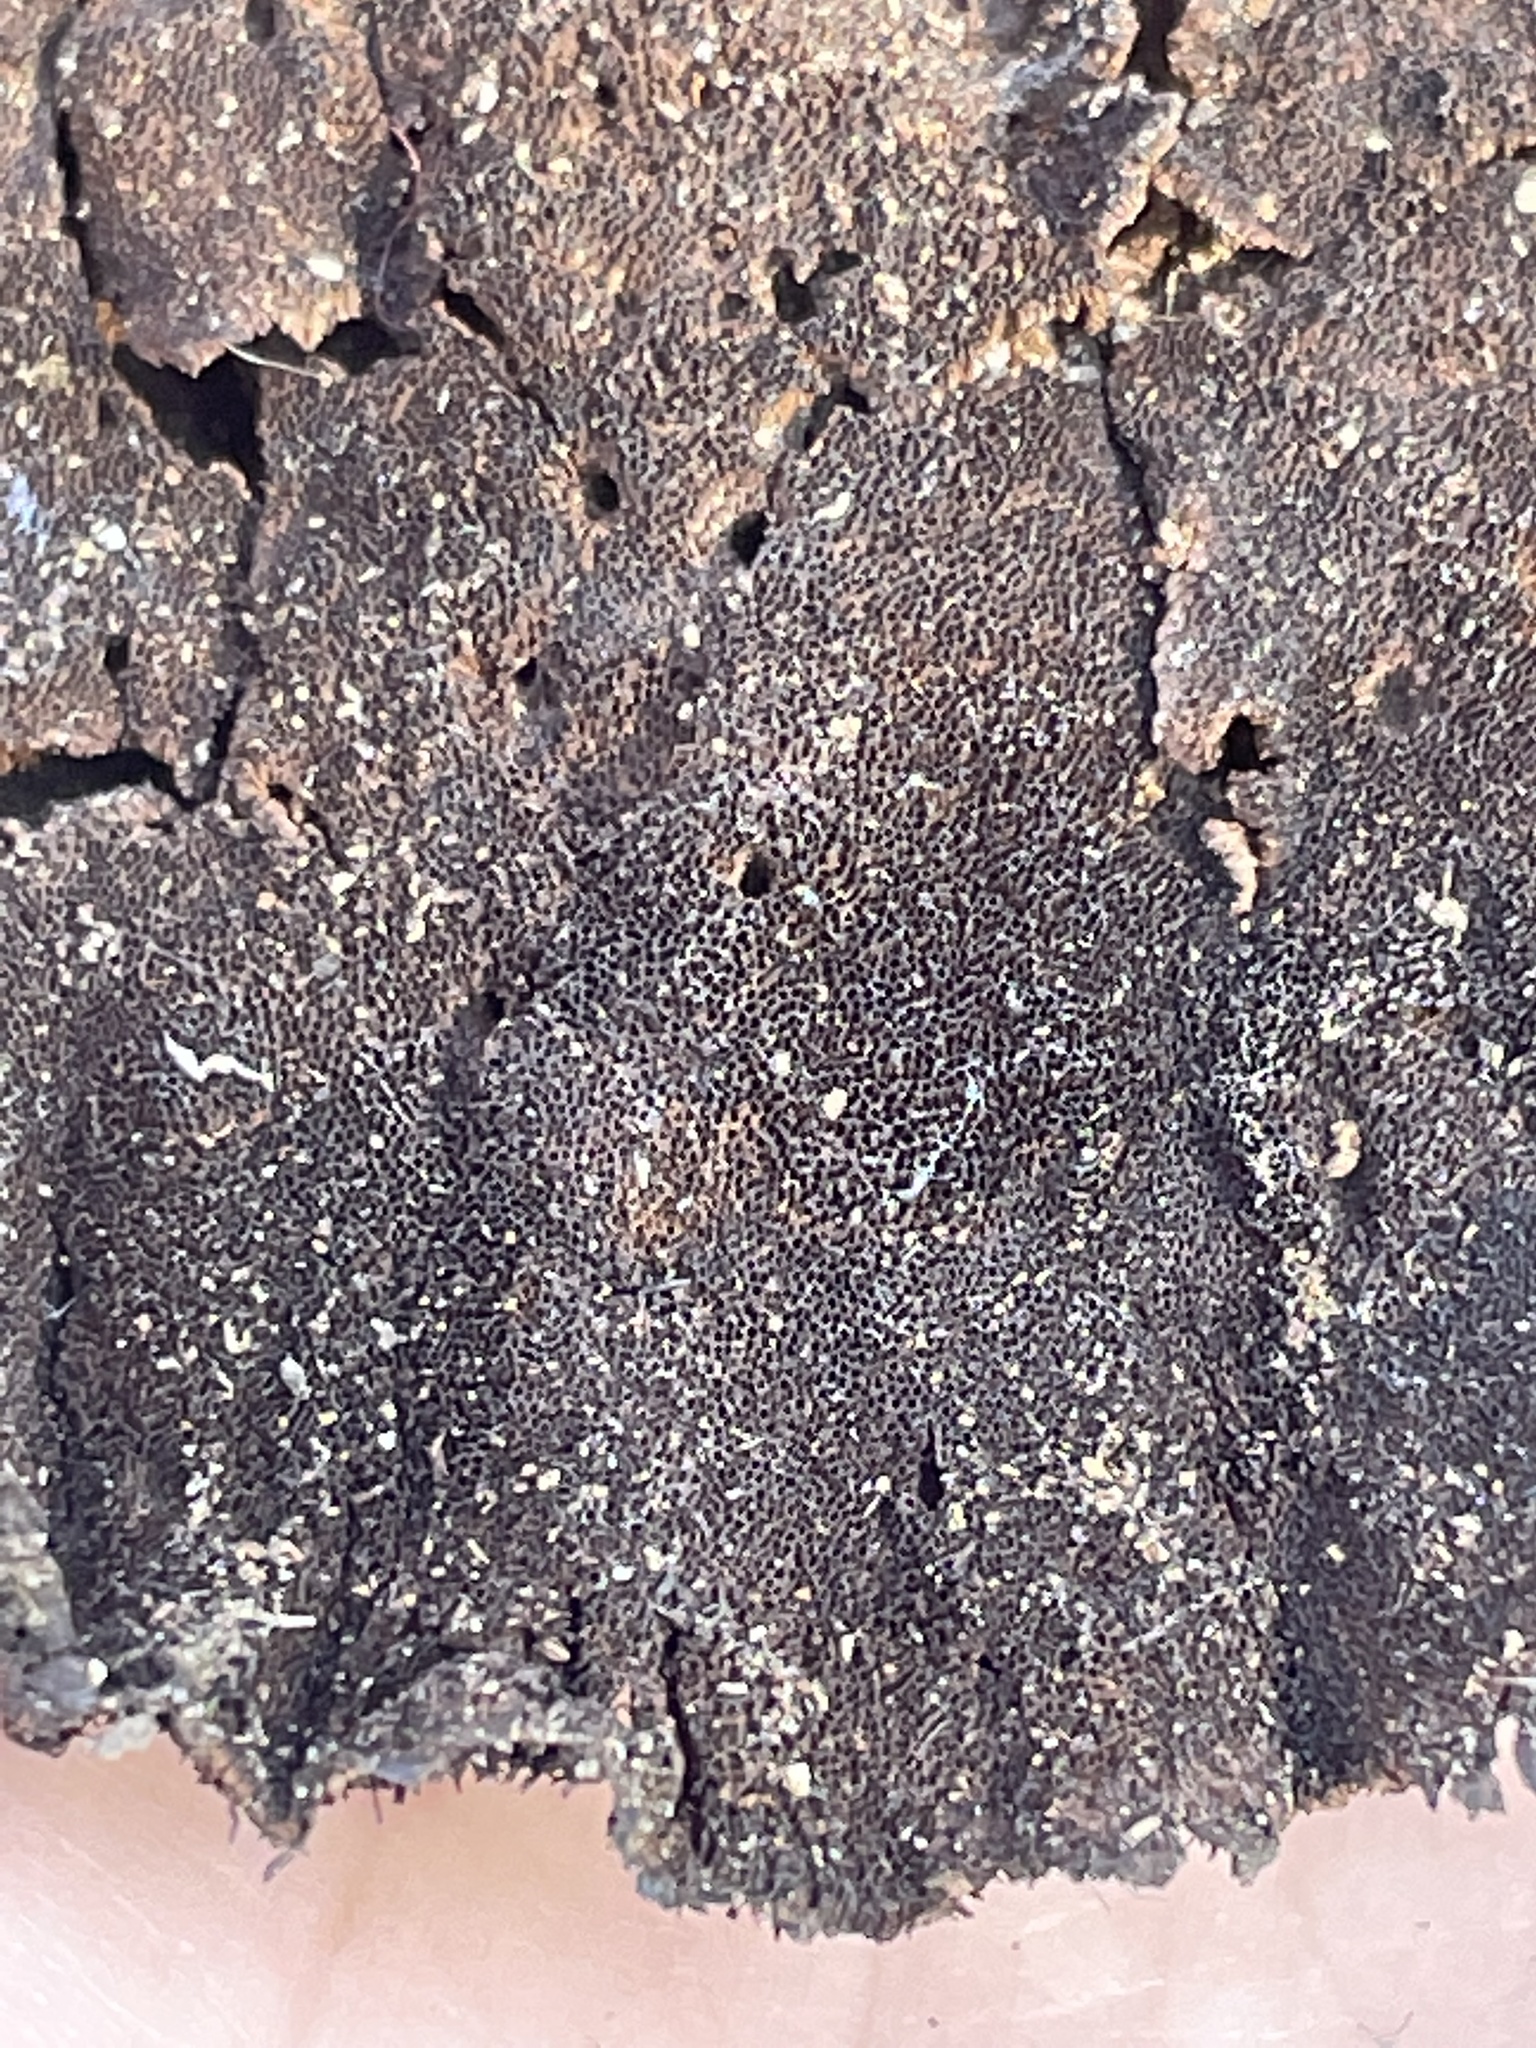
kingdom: Fungi
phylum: Basidiomycota
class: Agaricomycetes
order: Polyporales
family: Cerrenaceae
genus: Cerrena
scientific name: Cerrena hydnoides
